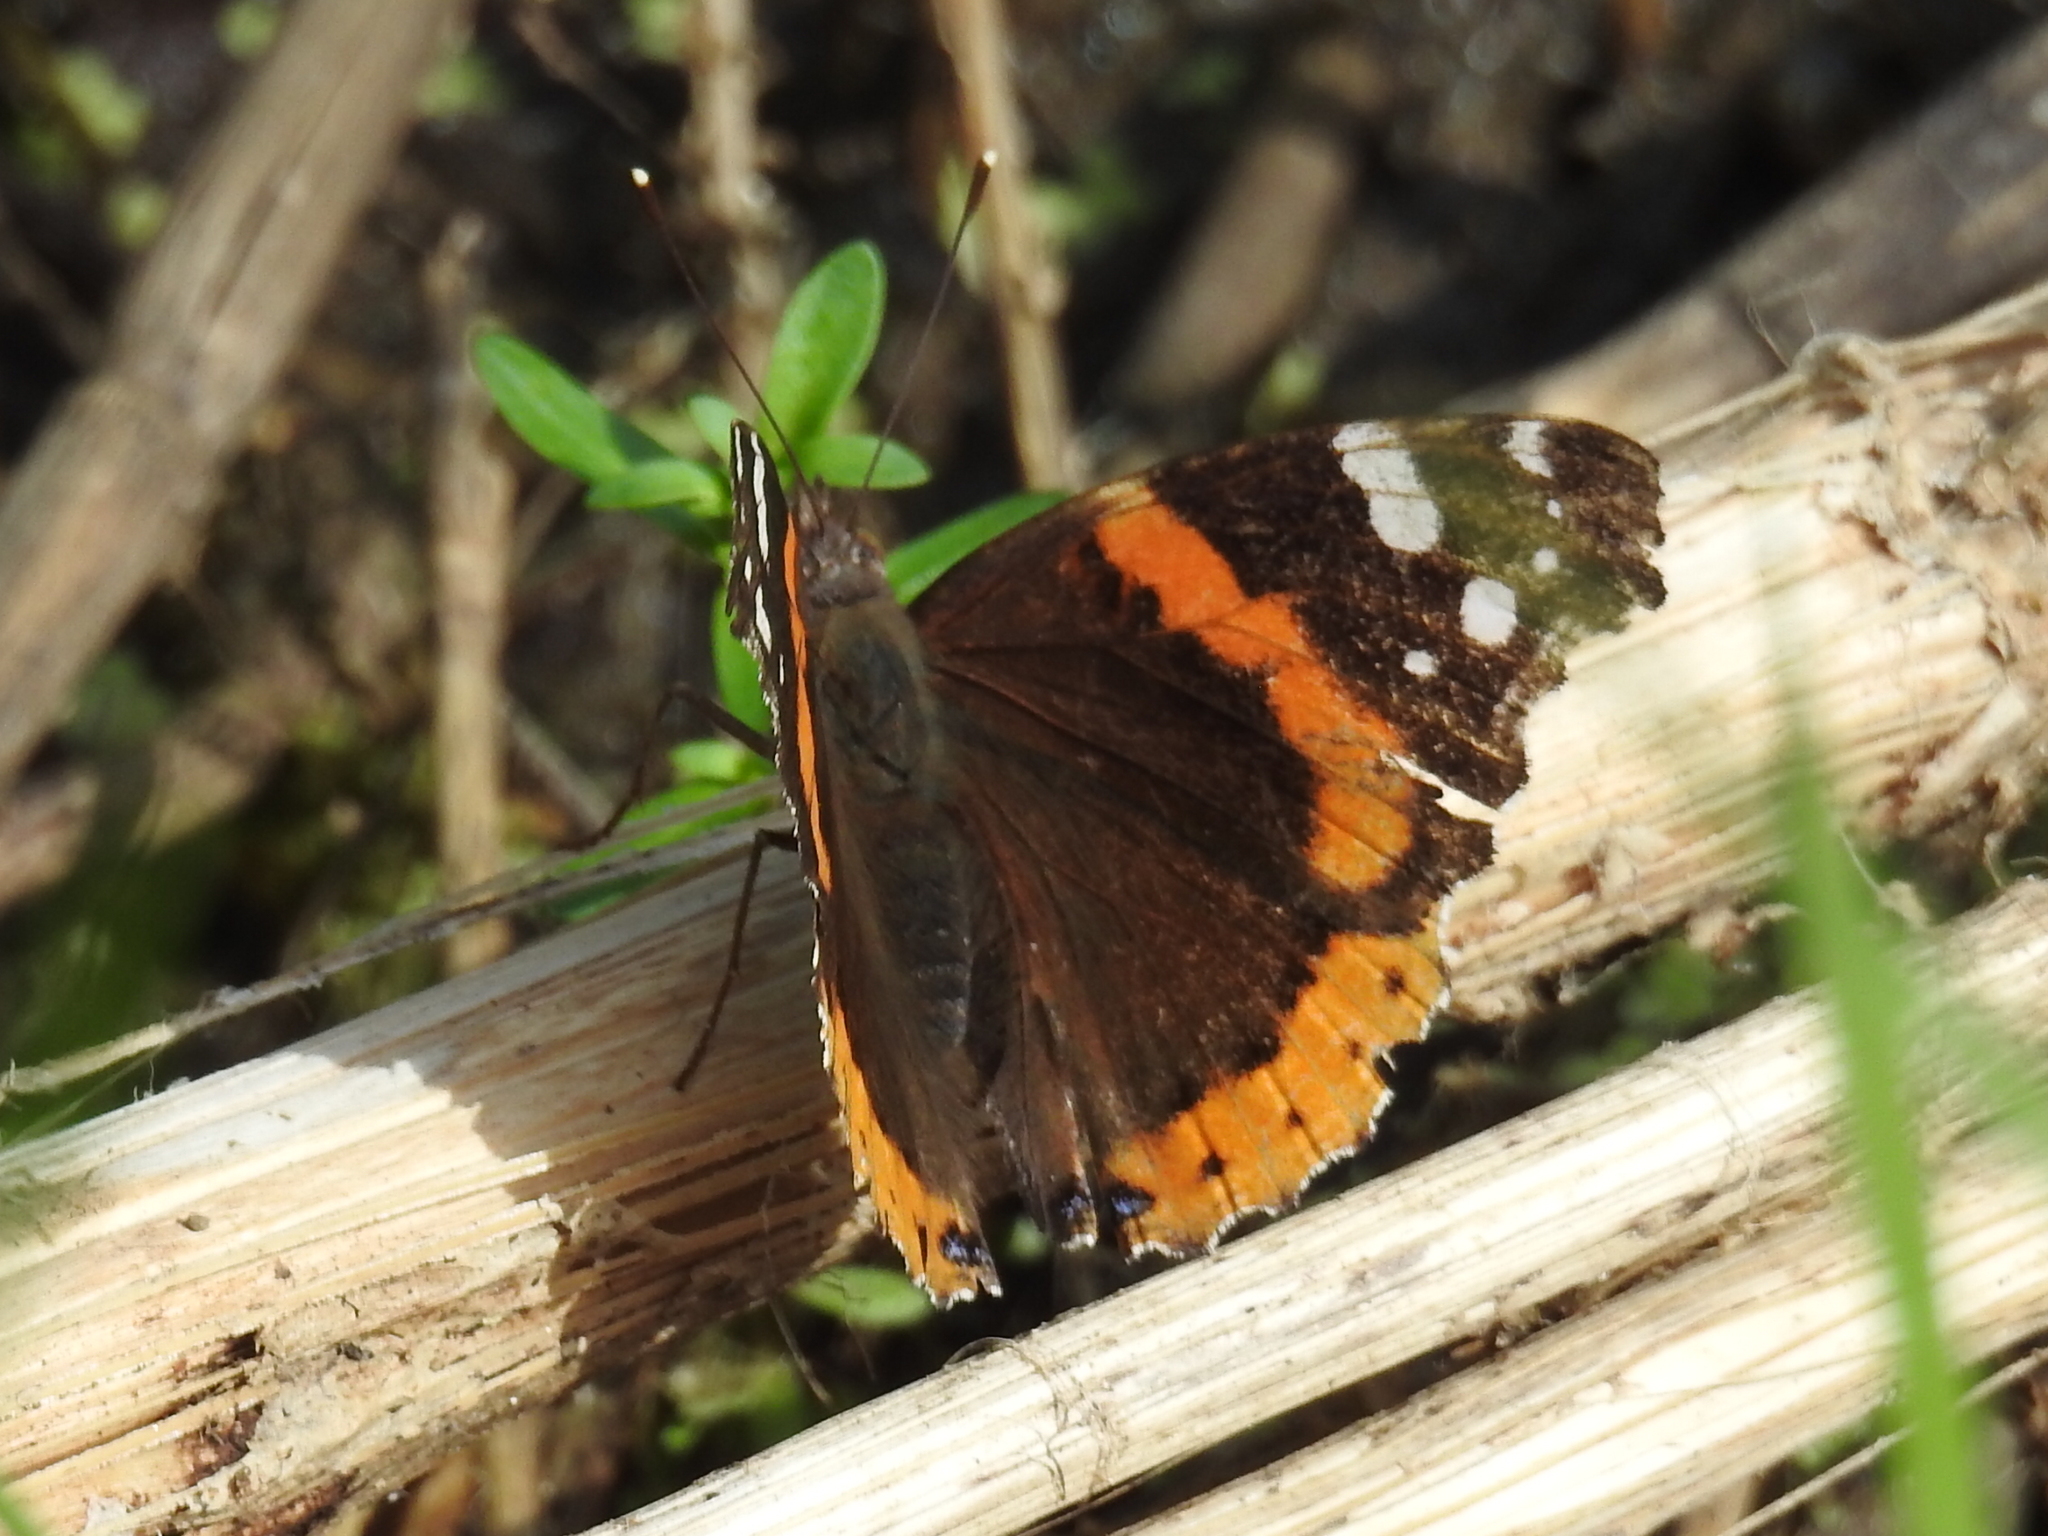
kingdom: Animalia
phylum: Arthropoda
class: Insecta
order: Lepidoptera
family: Nymphalidae
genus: Vanessa
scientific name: Vanessa atalanta
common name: Red admiral
